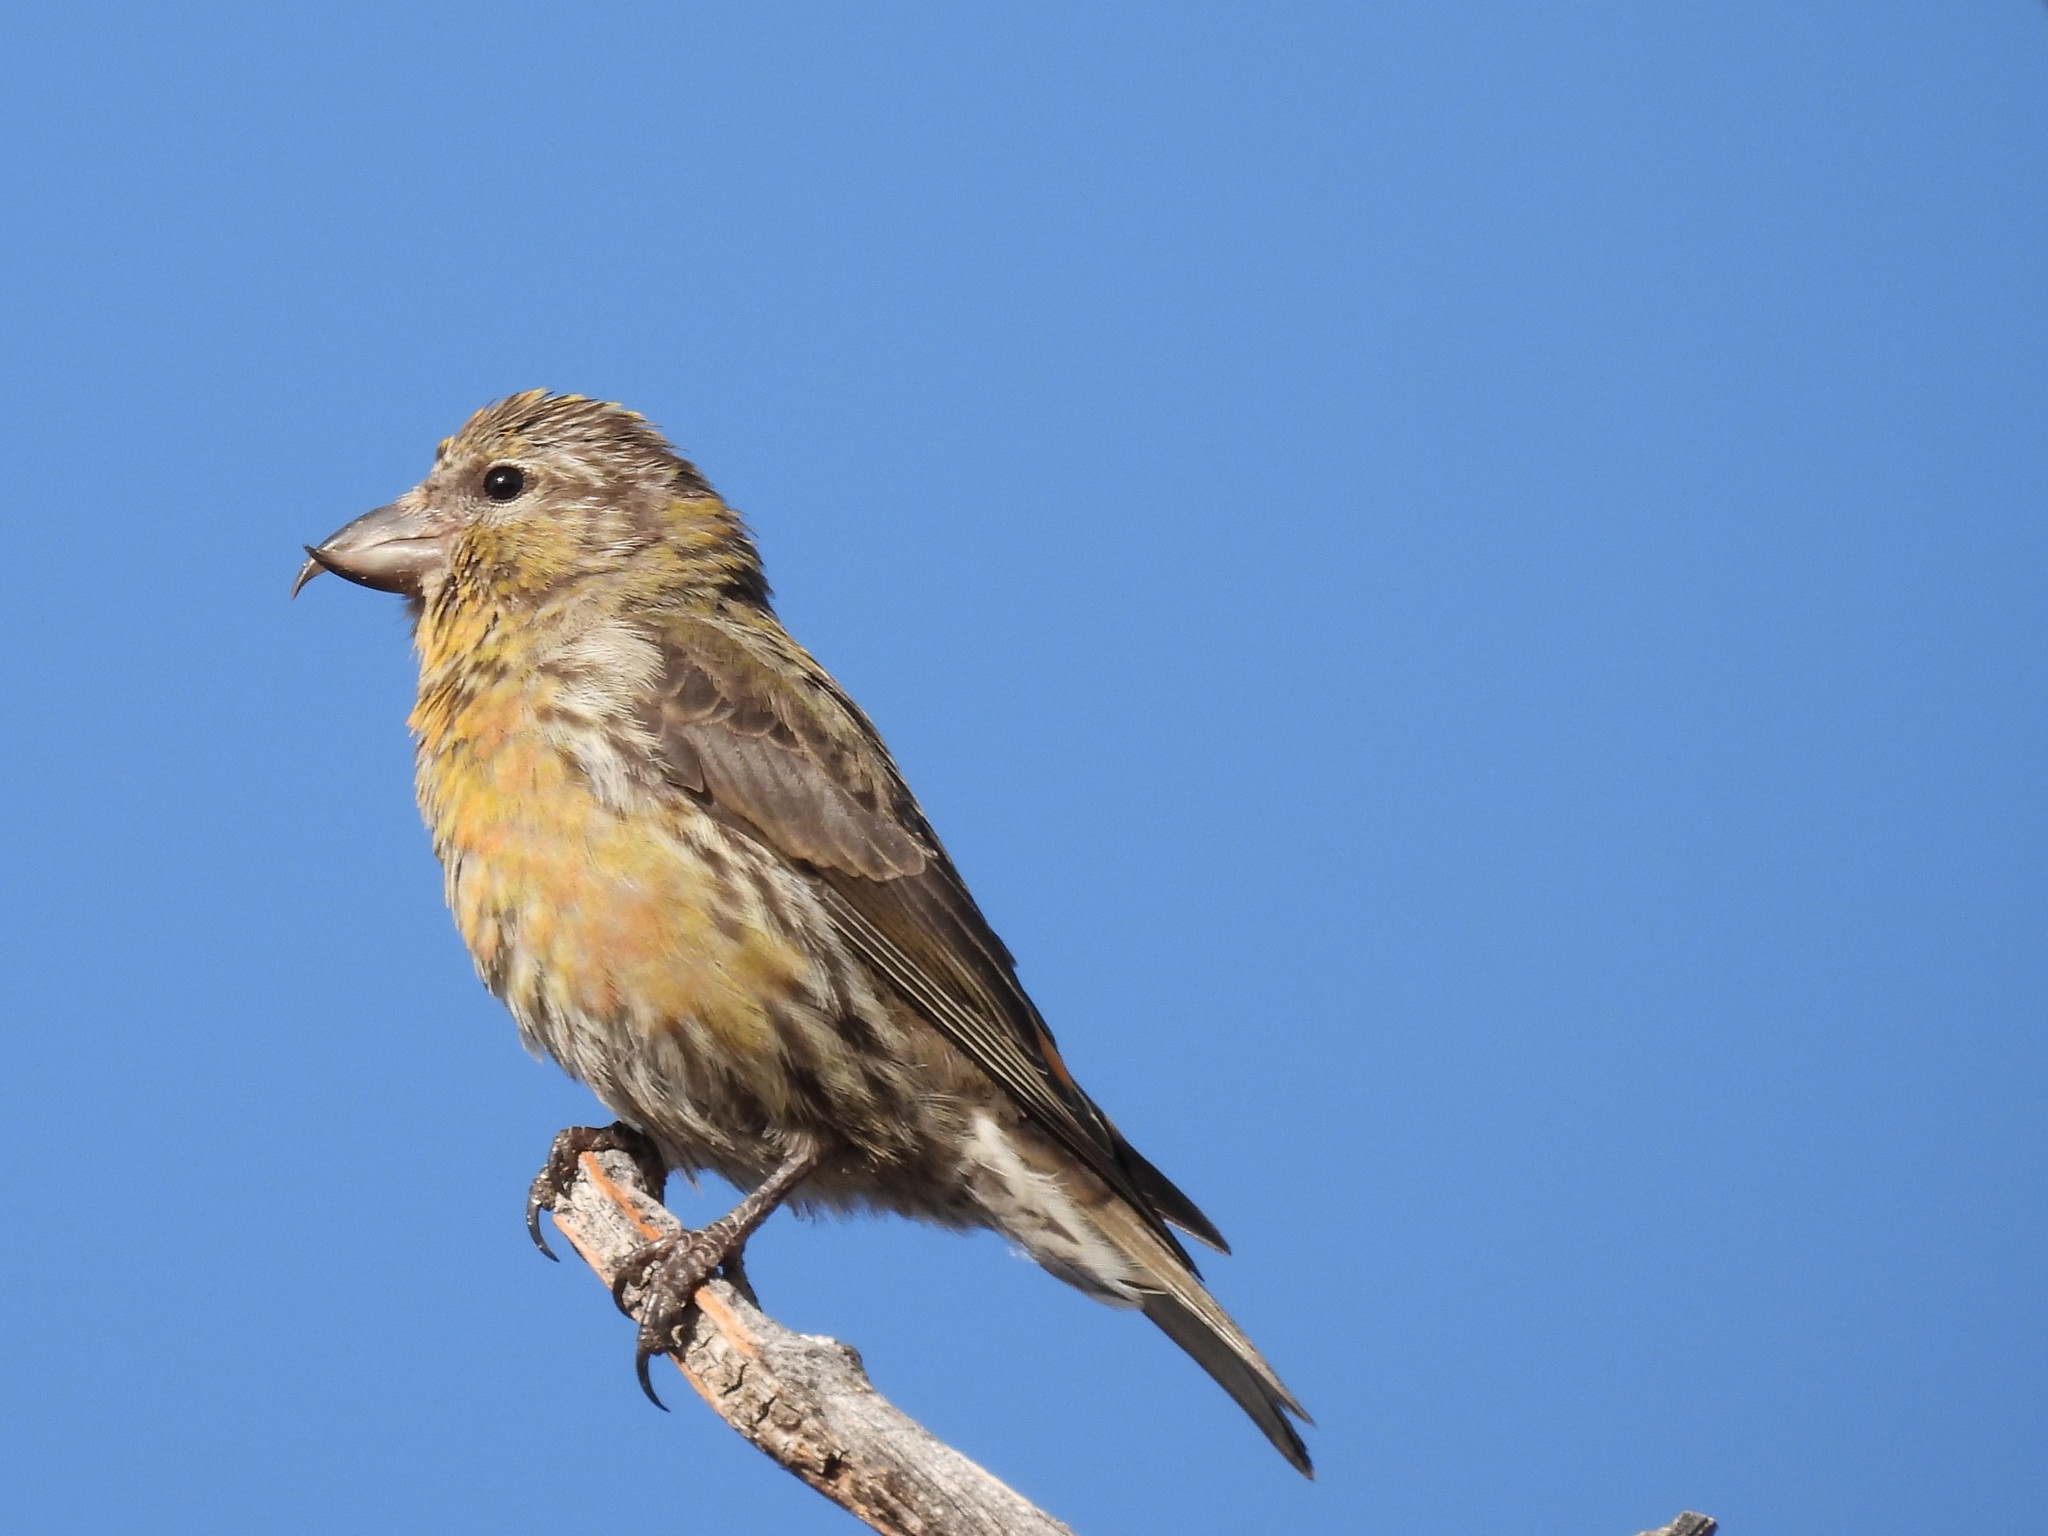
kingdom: Animalia
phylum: Chordata
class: Aves
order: Passeriformes
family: Fringillidae
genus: Loxia
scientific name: Loxia curvirostra
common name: Red crossbill
